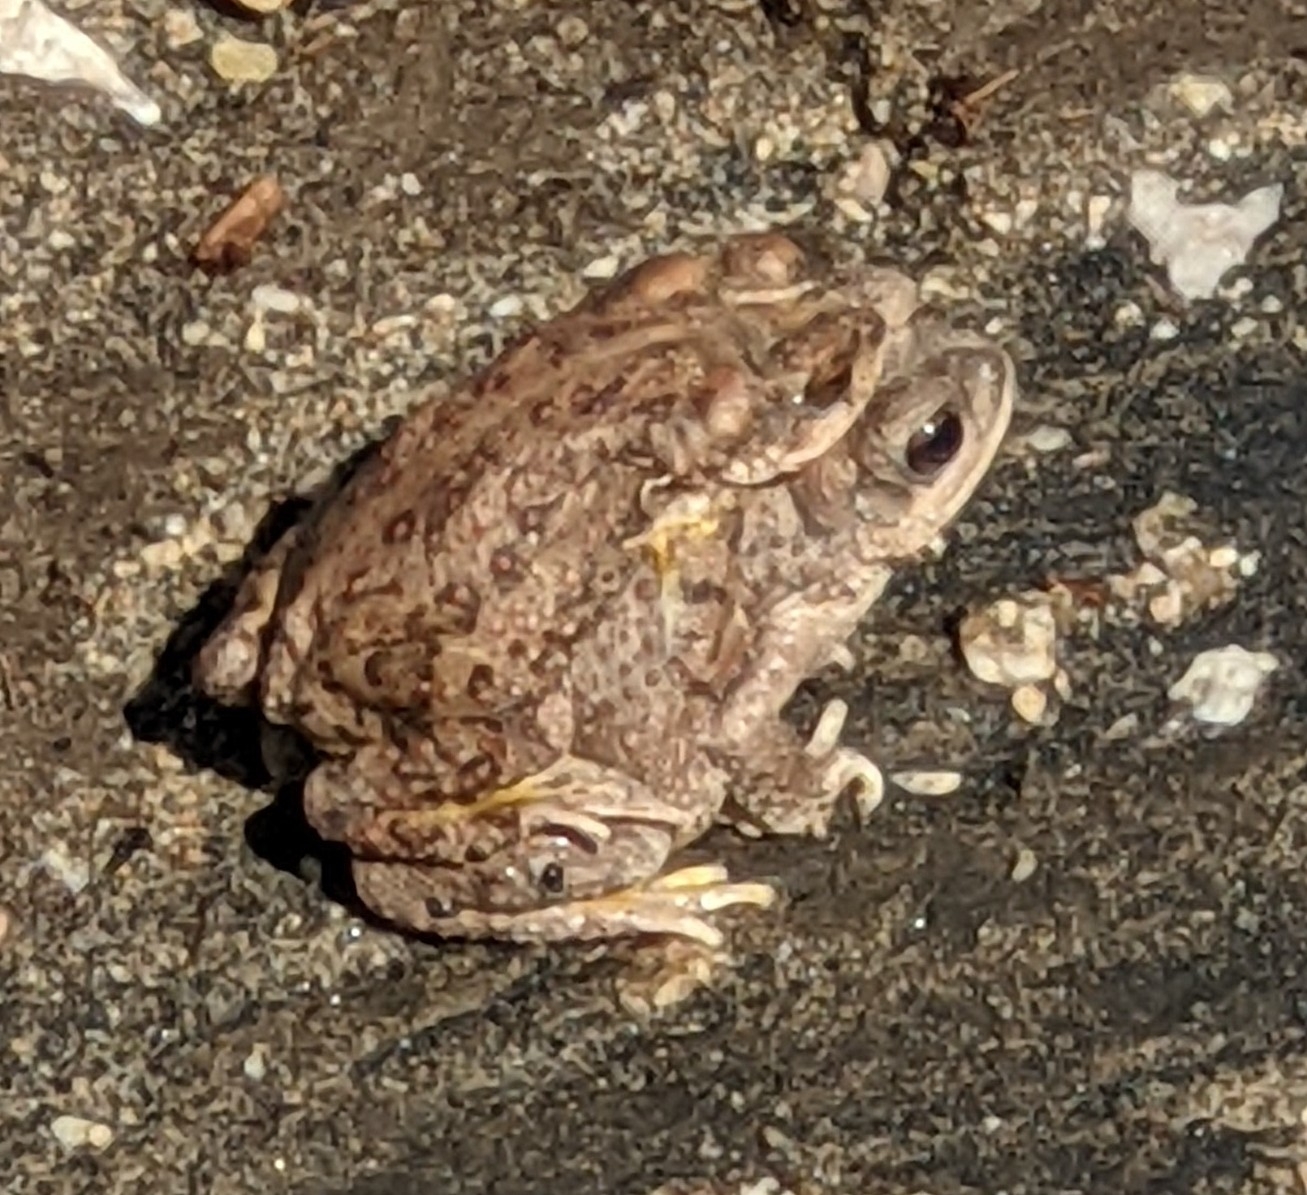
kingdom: Animalia
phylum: Chordata
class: Amphibia
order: Anura
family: Bufonidae
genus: Anaxyrus
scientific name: Anaxyrus punctatus
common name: Red-spotted toad
